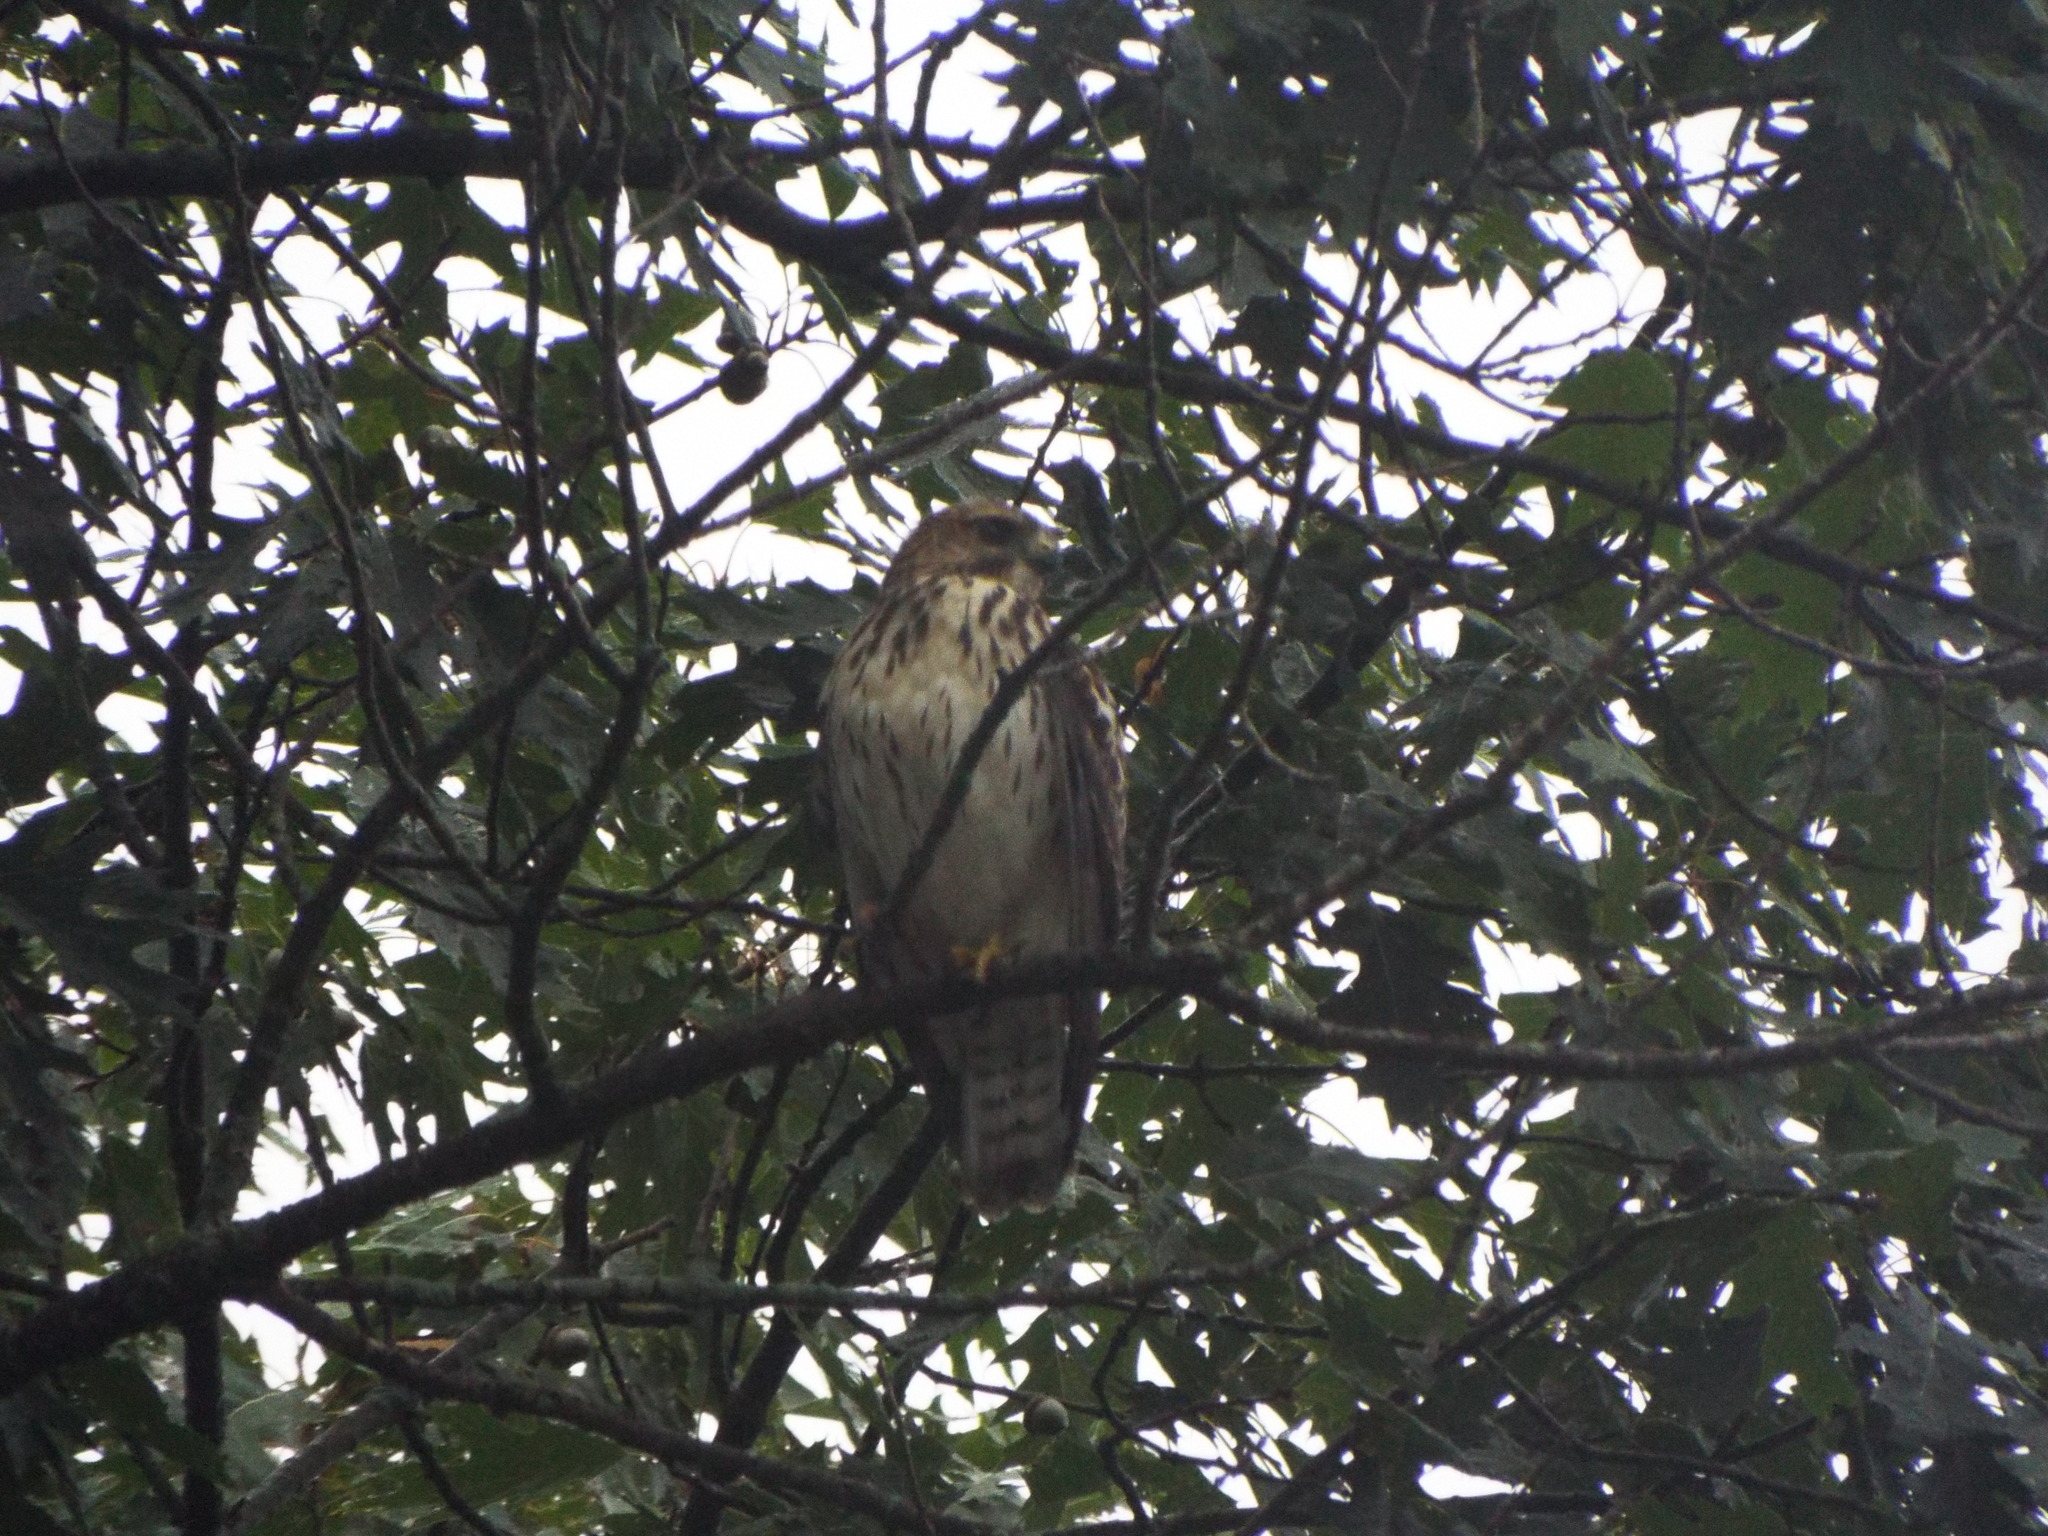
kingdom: Animalia
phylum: Chordata
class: Aves
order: Accipitriformes
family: Accipitridae
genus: Buteo
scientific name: Buteo platypterus
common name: Broad-winged hawk
